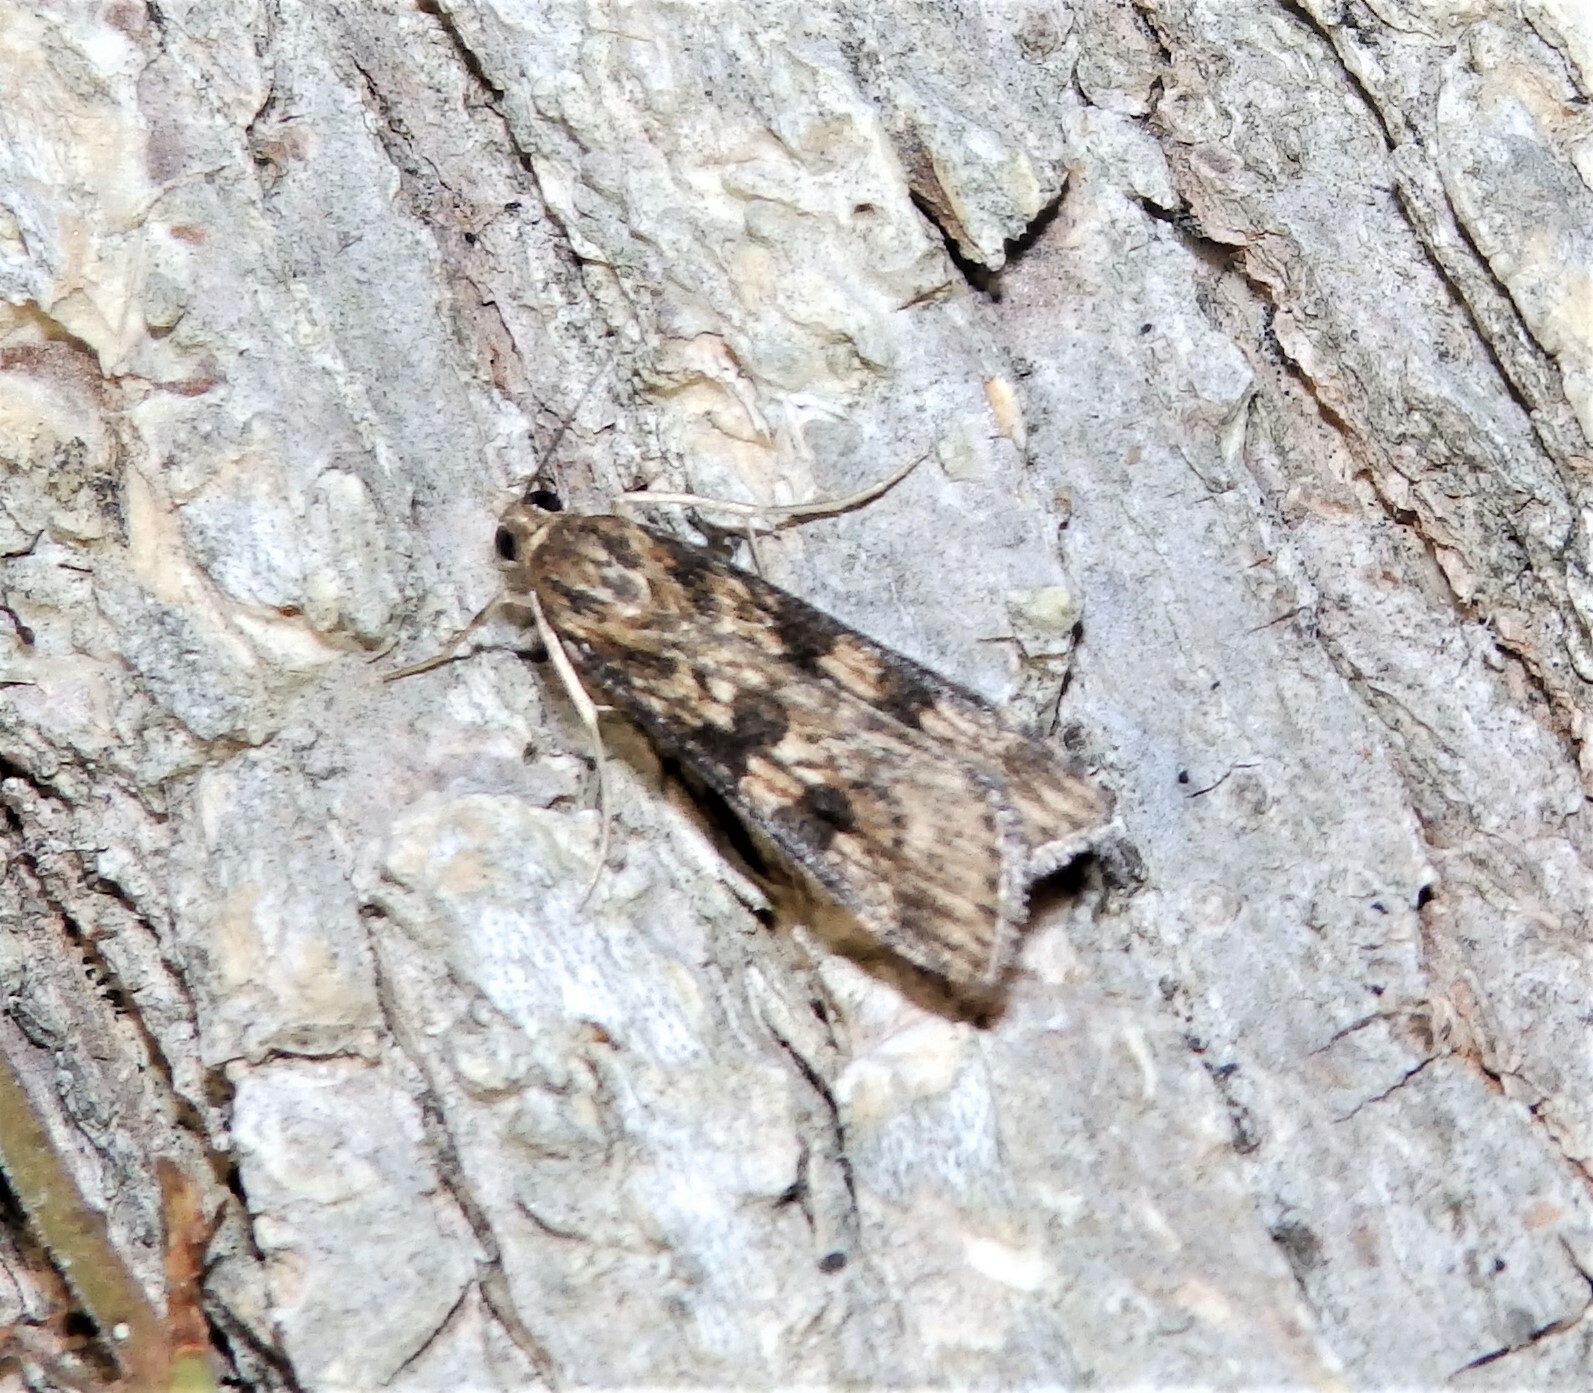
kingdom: Animalia
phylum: Arthropoda
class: Insecta
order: Lepidoptera
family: Crambidae
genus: Nomophila
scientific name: Nomophila nearctica
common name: American rush veneer
